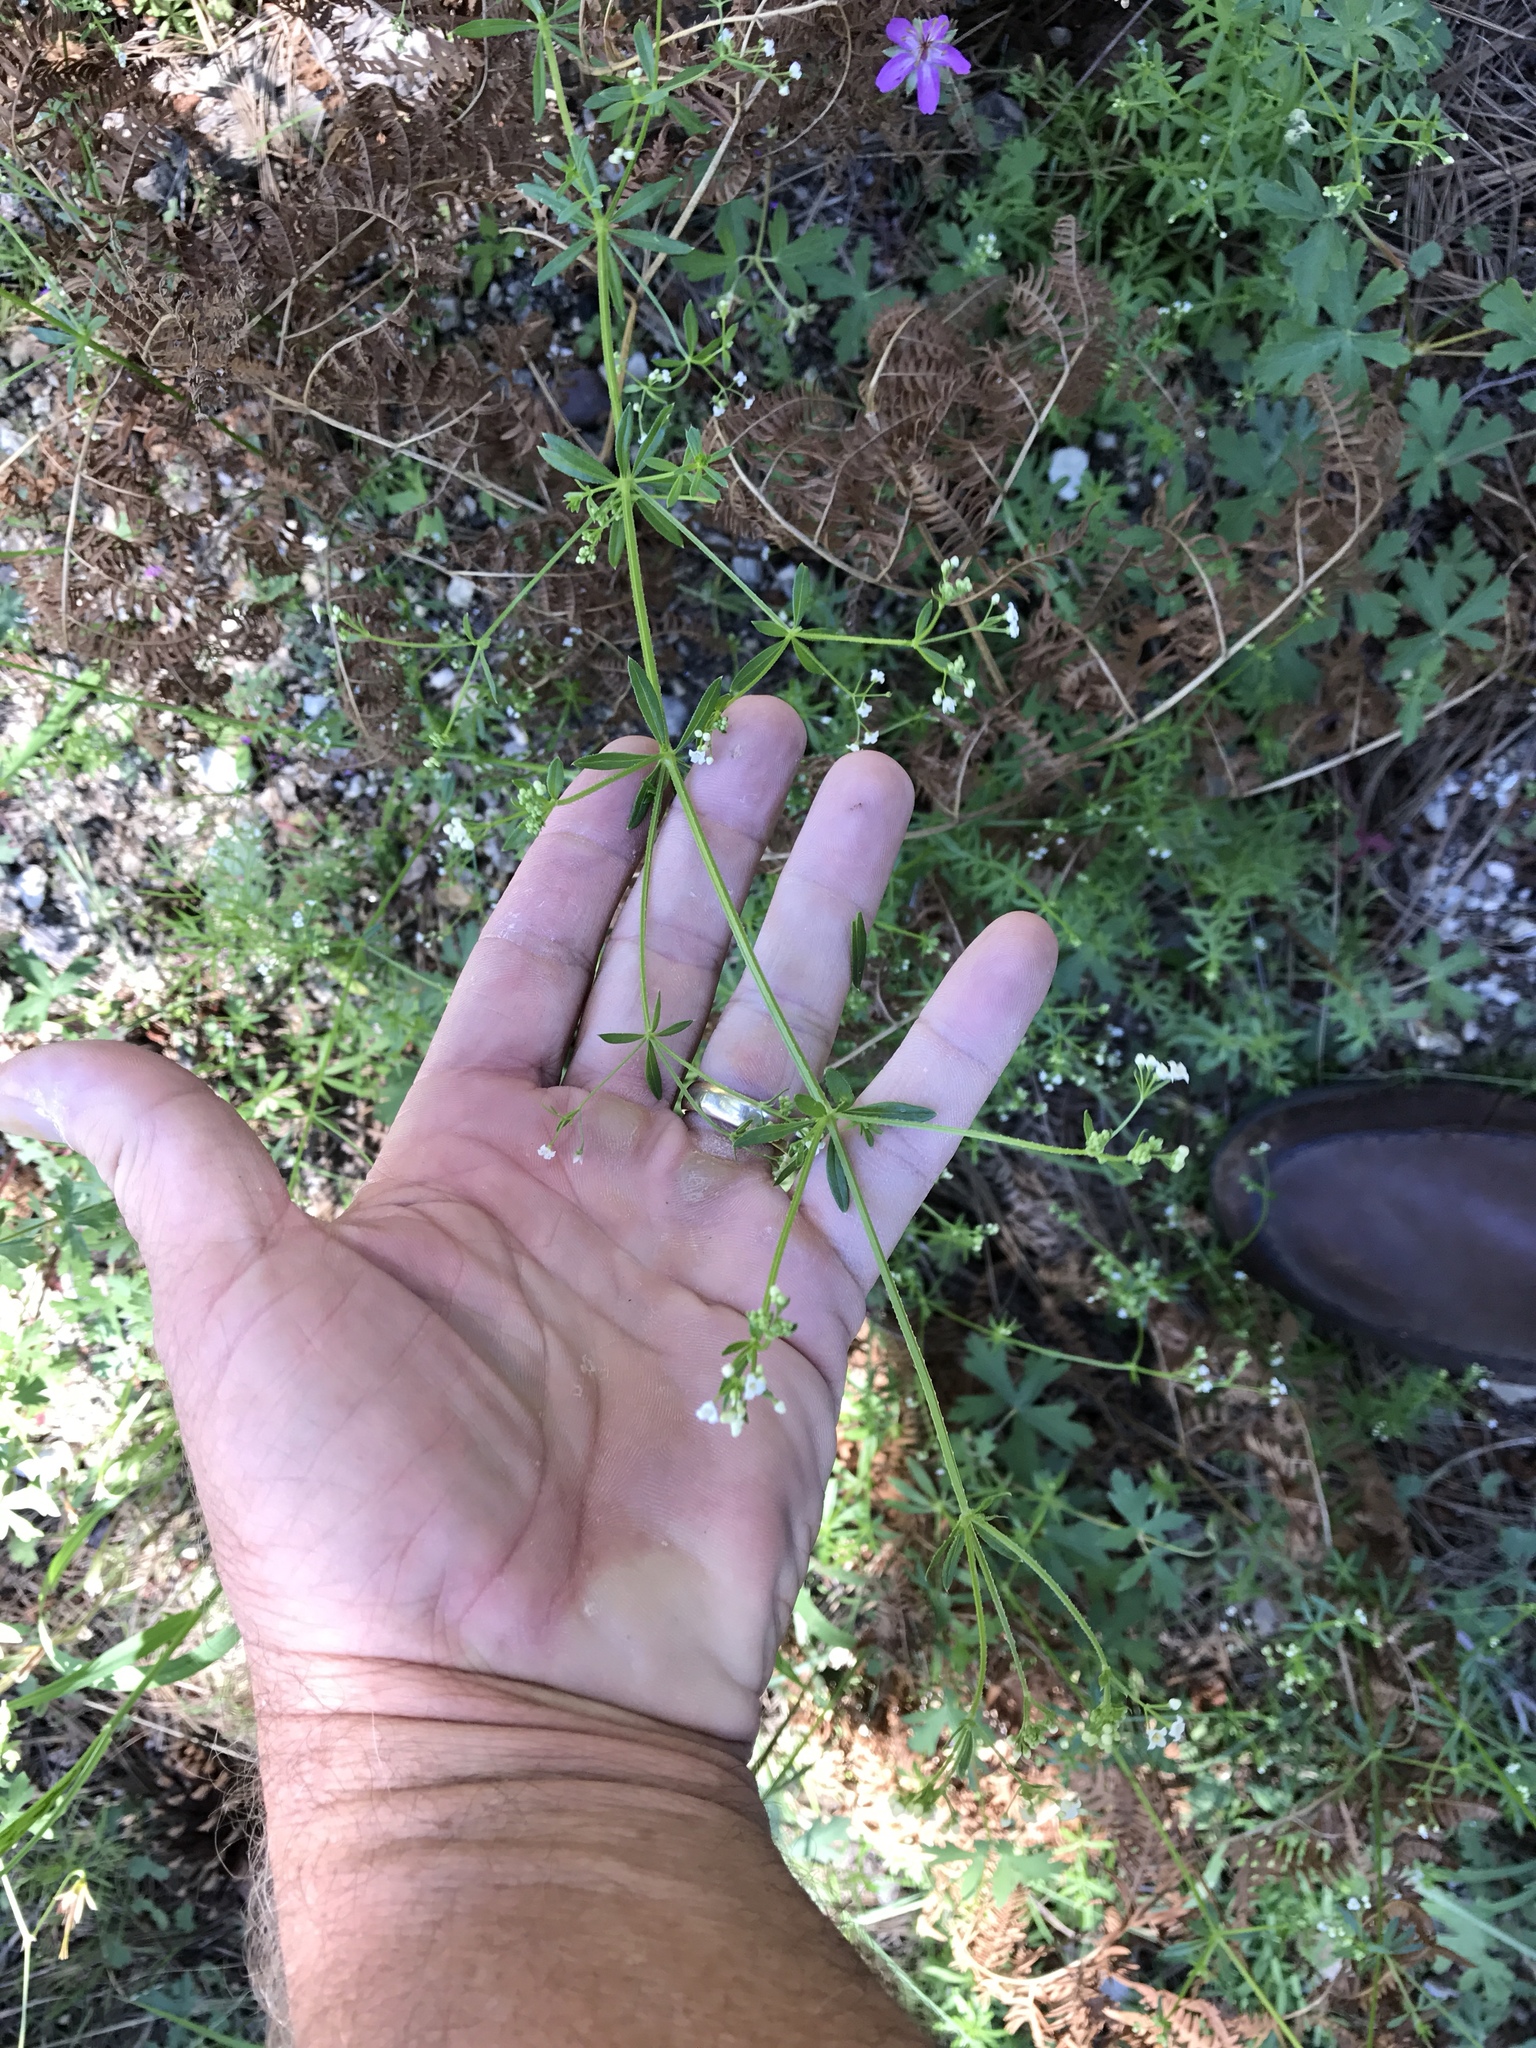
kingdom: Plantae
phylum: Tracheophyta
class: Magnoliopsida
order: Gentianales
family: Rubiaceae
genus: Galium
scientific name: Galium mexicanum
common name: Mexican bedstraw
